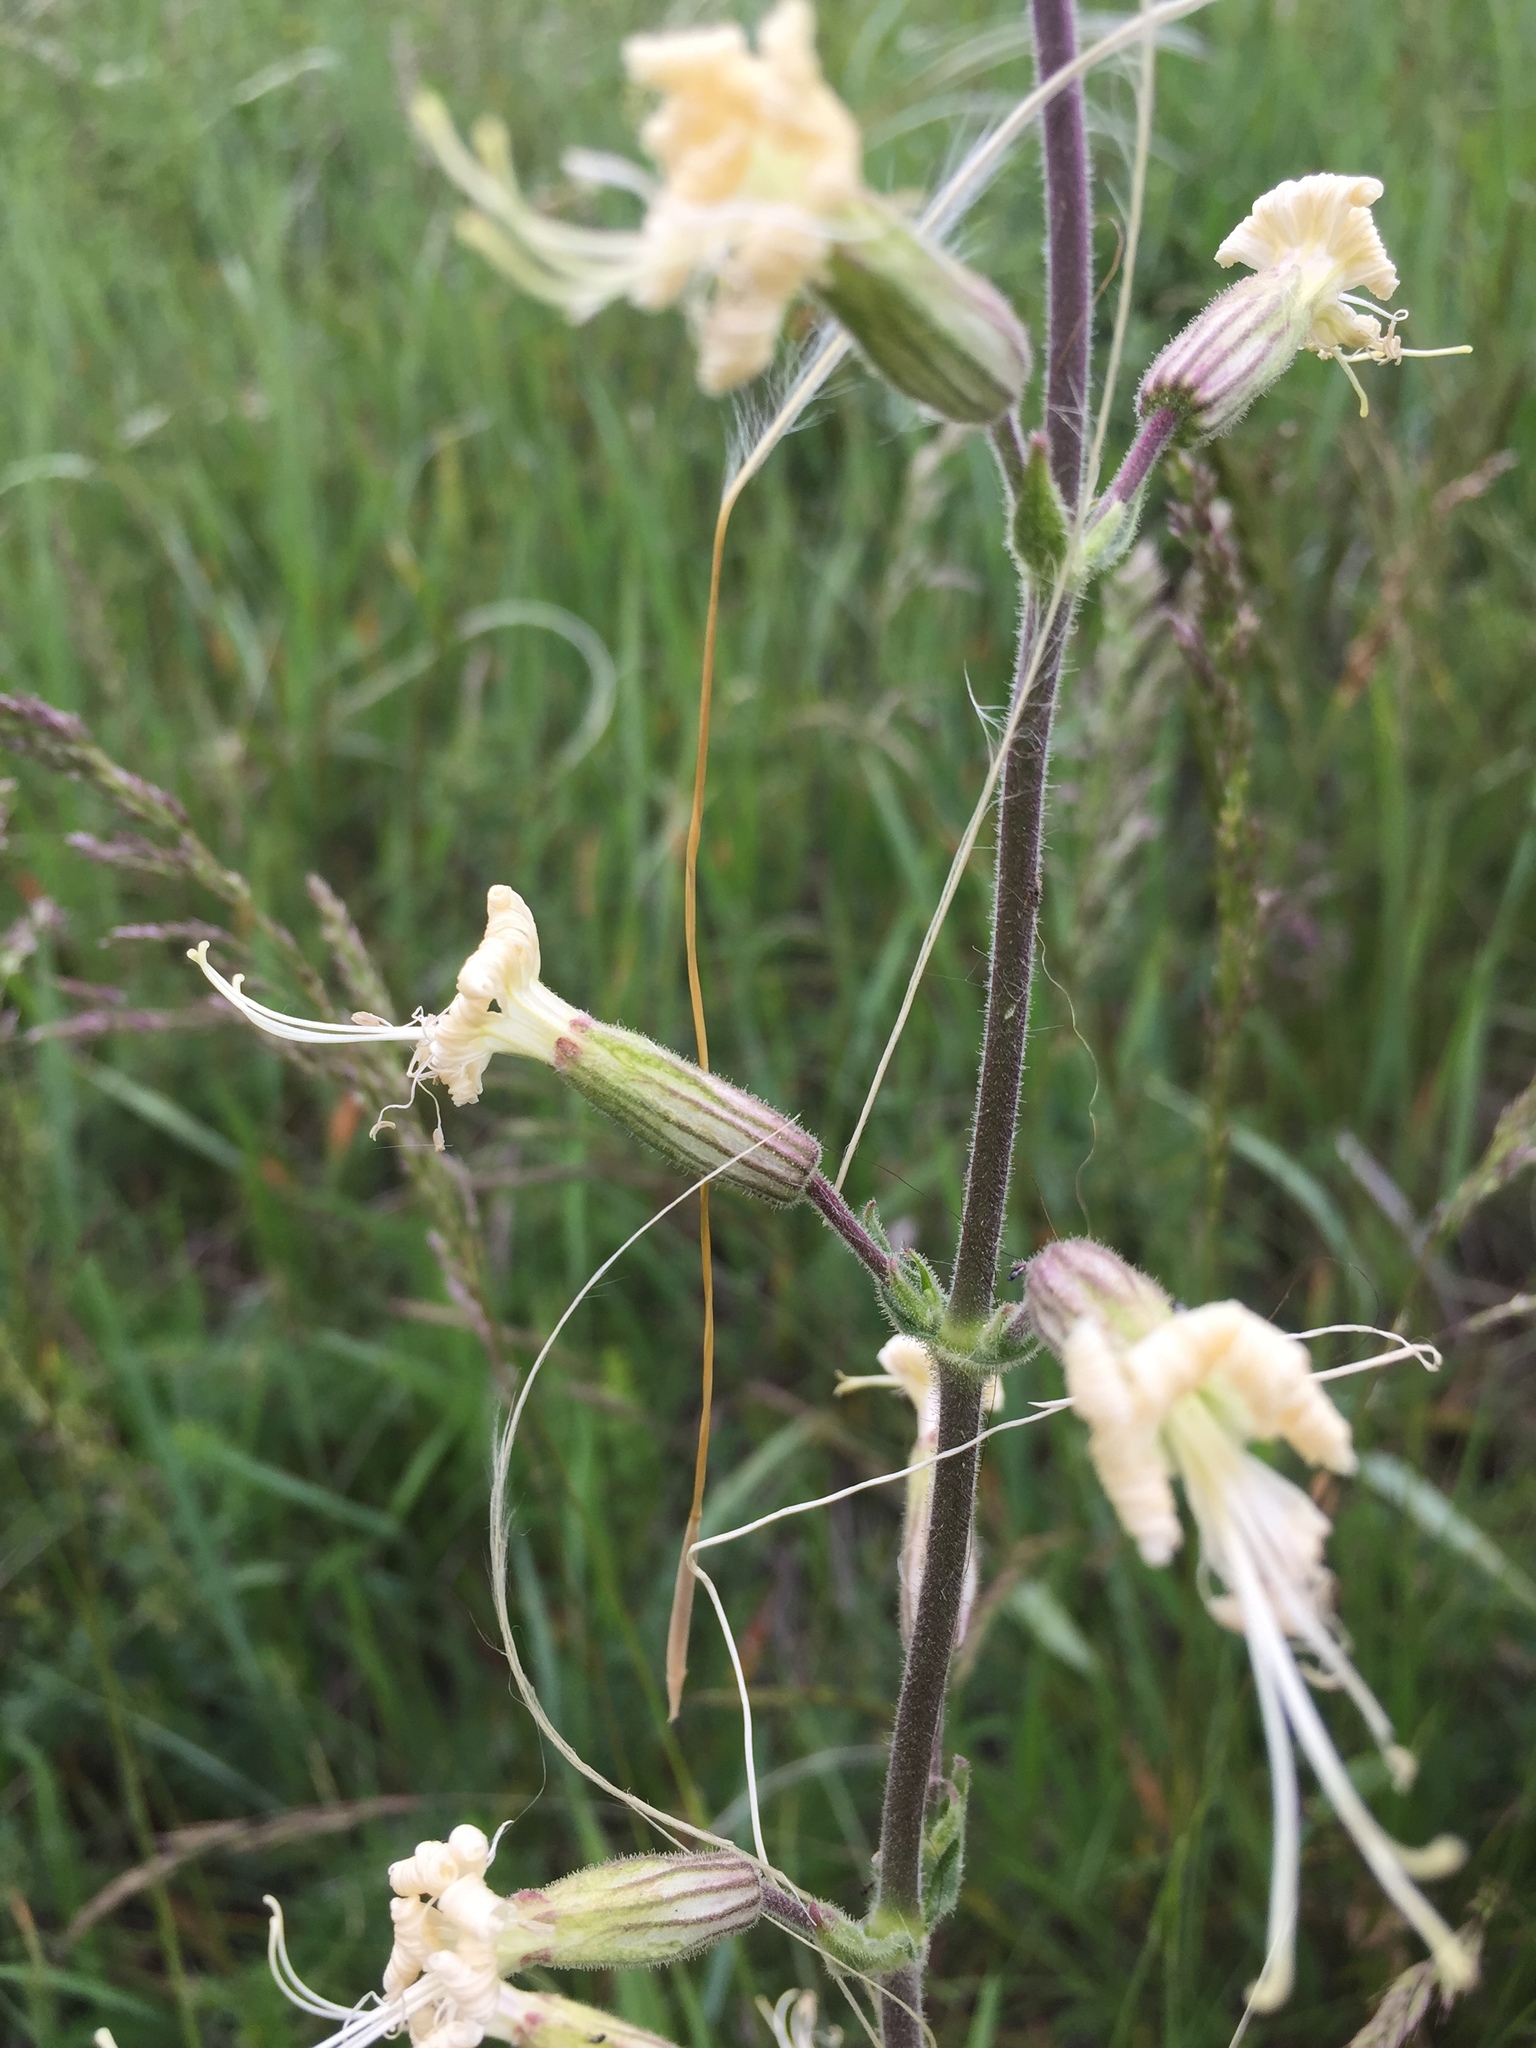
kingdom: Plantae
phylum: Tracheophyta
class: Magnoliopsida
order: Caryophyllales
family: Caryophyllaceae
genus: Silene
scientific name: Silene viscosa
